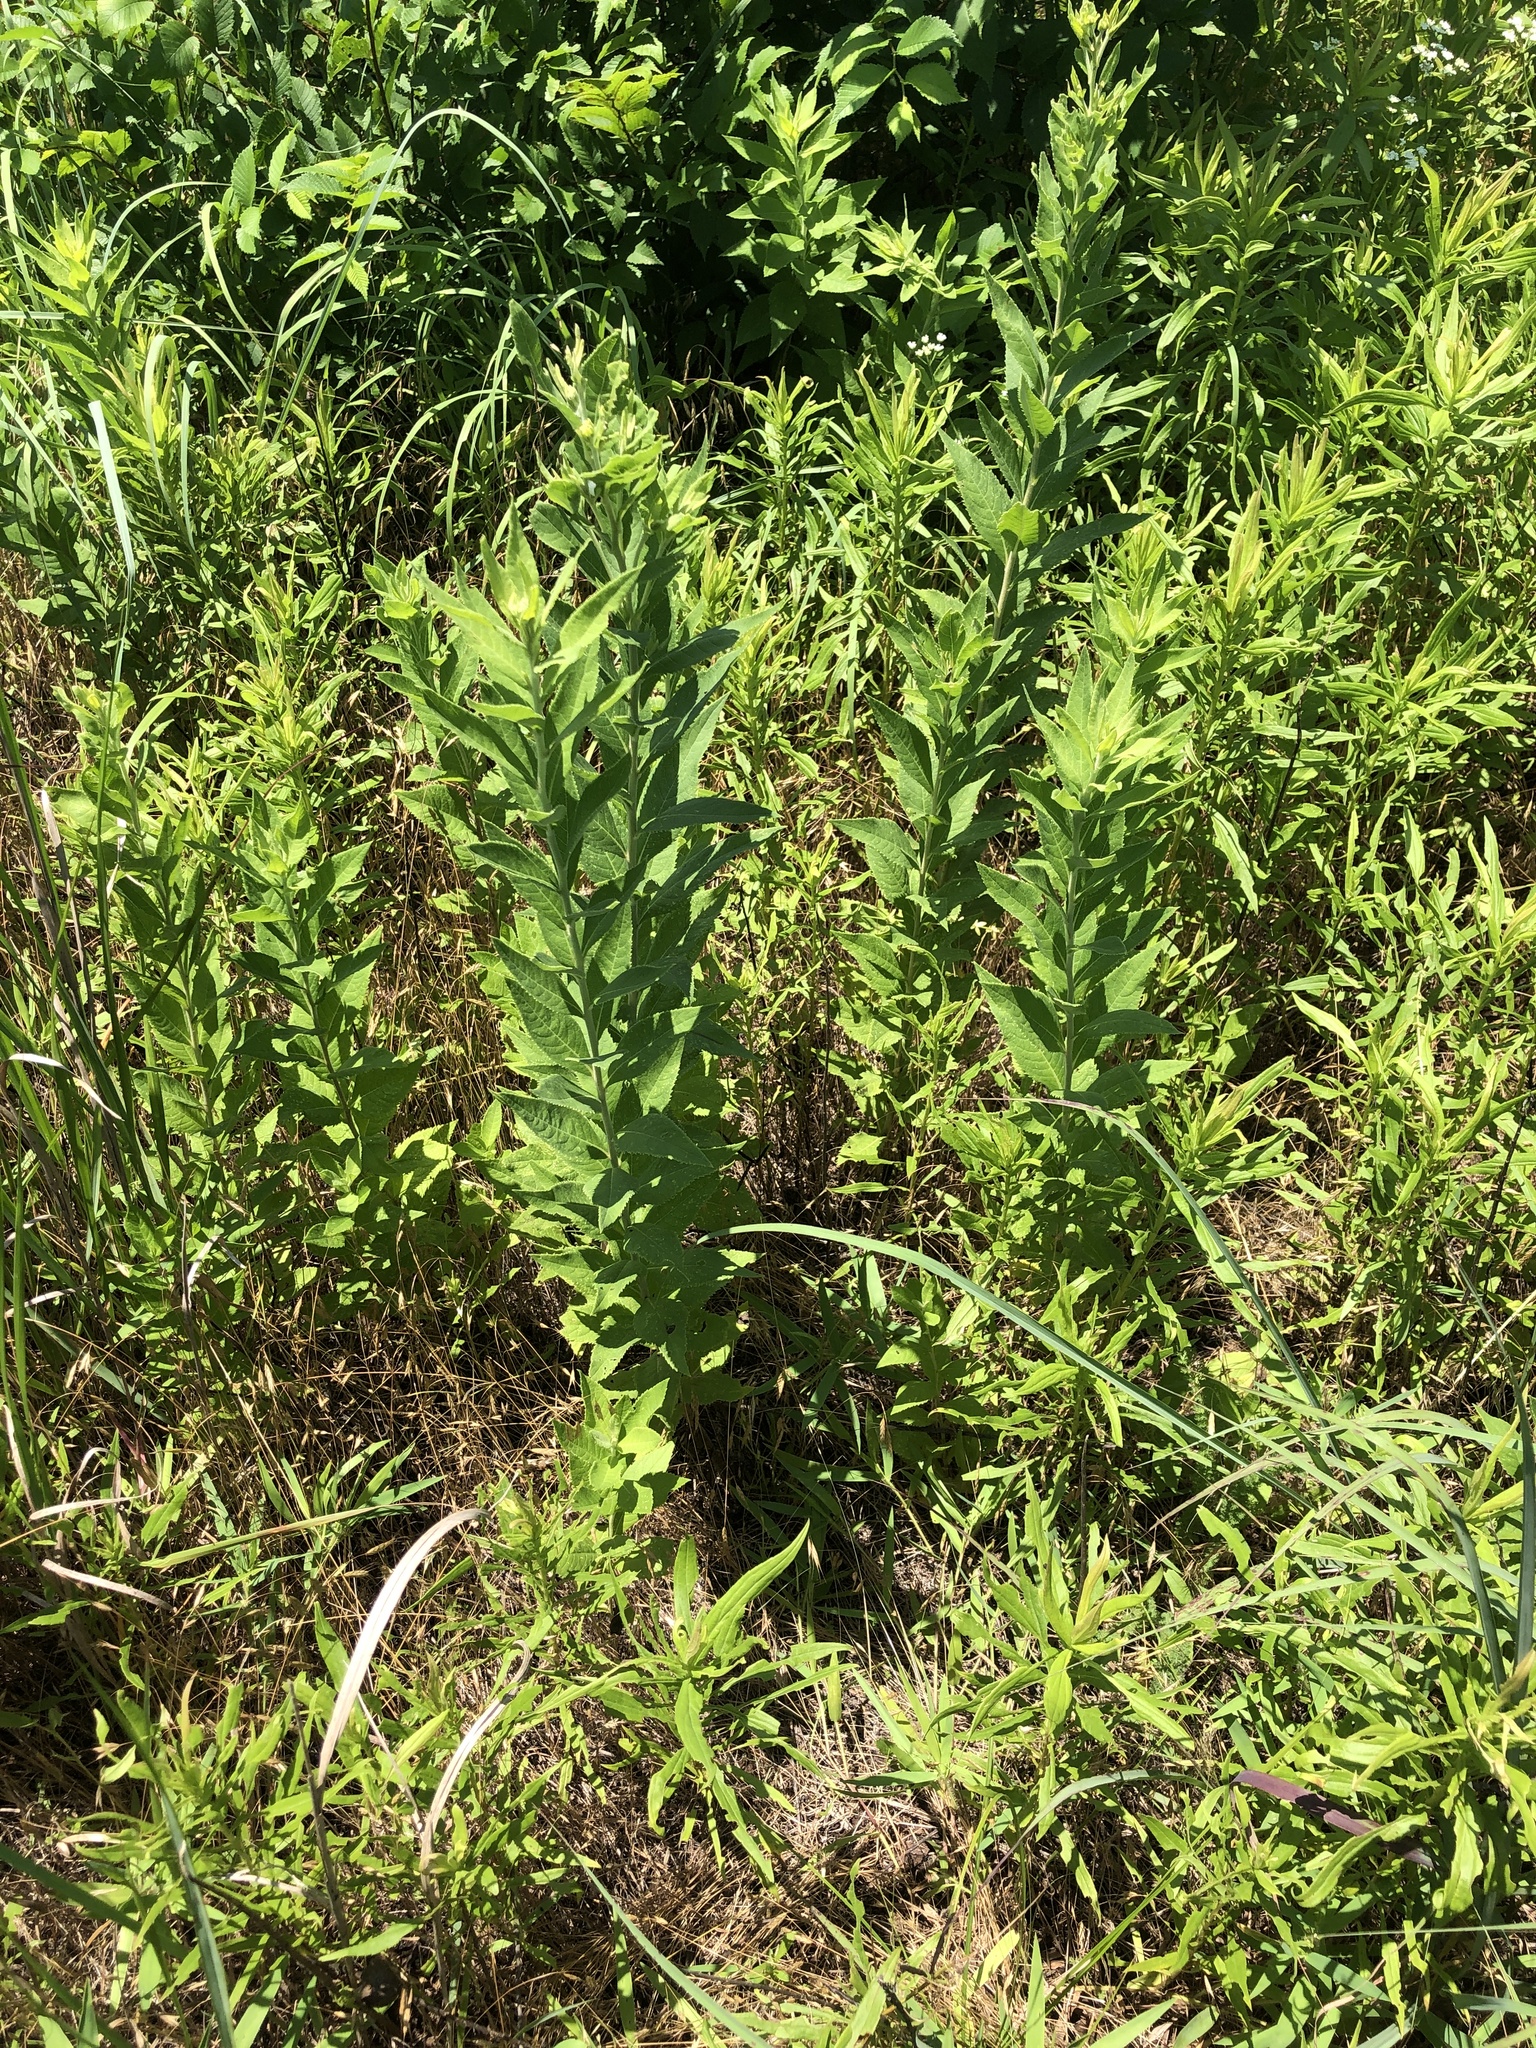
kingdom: Plantae
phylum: Tracheophyta
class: Magnoliopsida
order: Asterales
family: Asteraceae
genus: Vernonia
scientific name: Vernonia baldwinii
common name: Western ironweed
